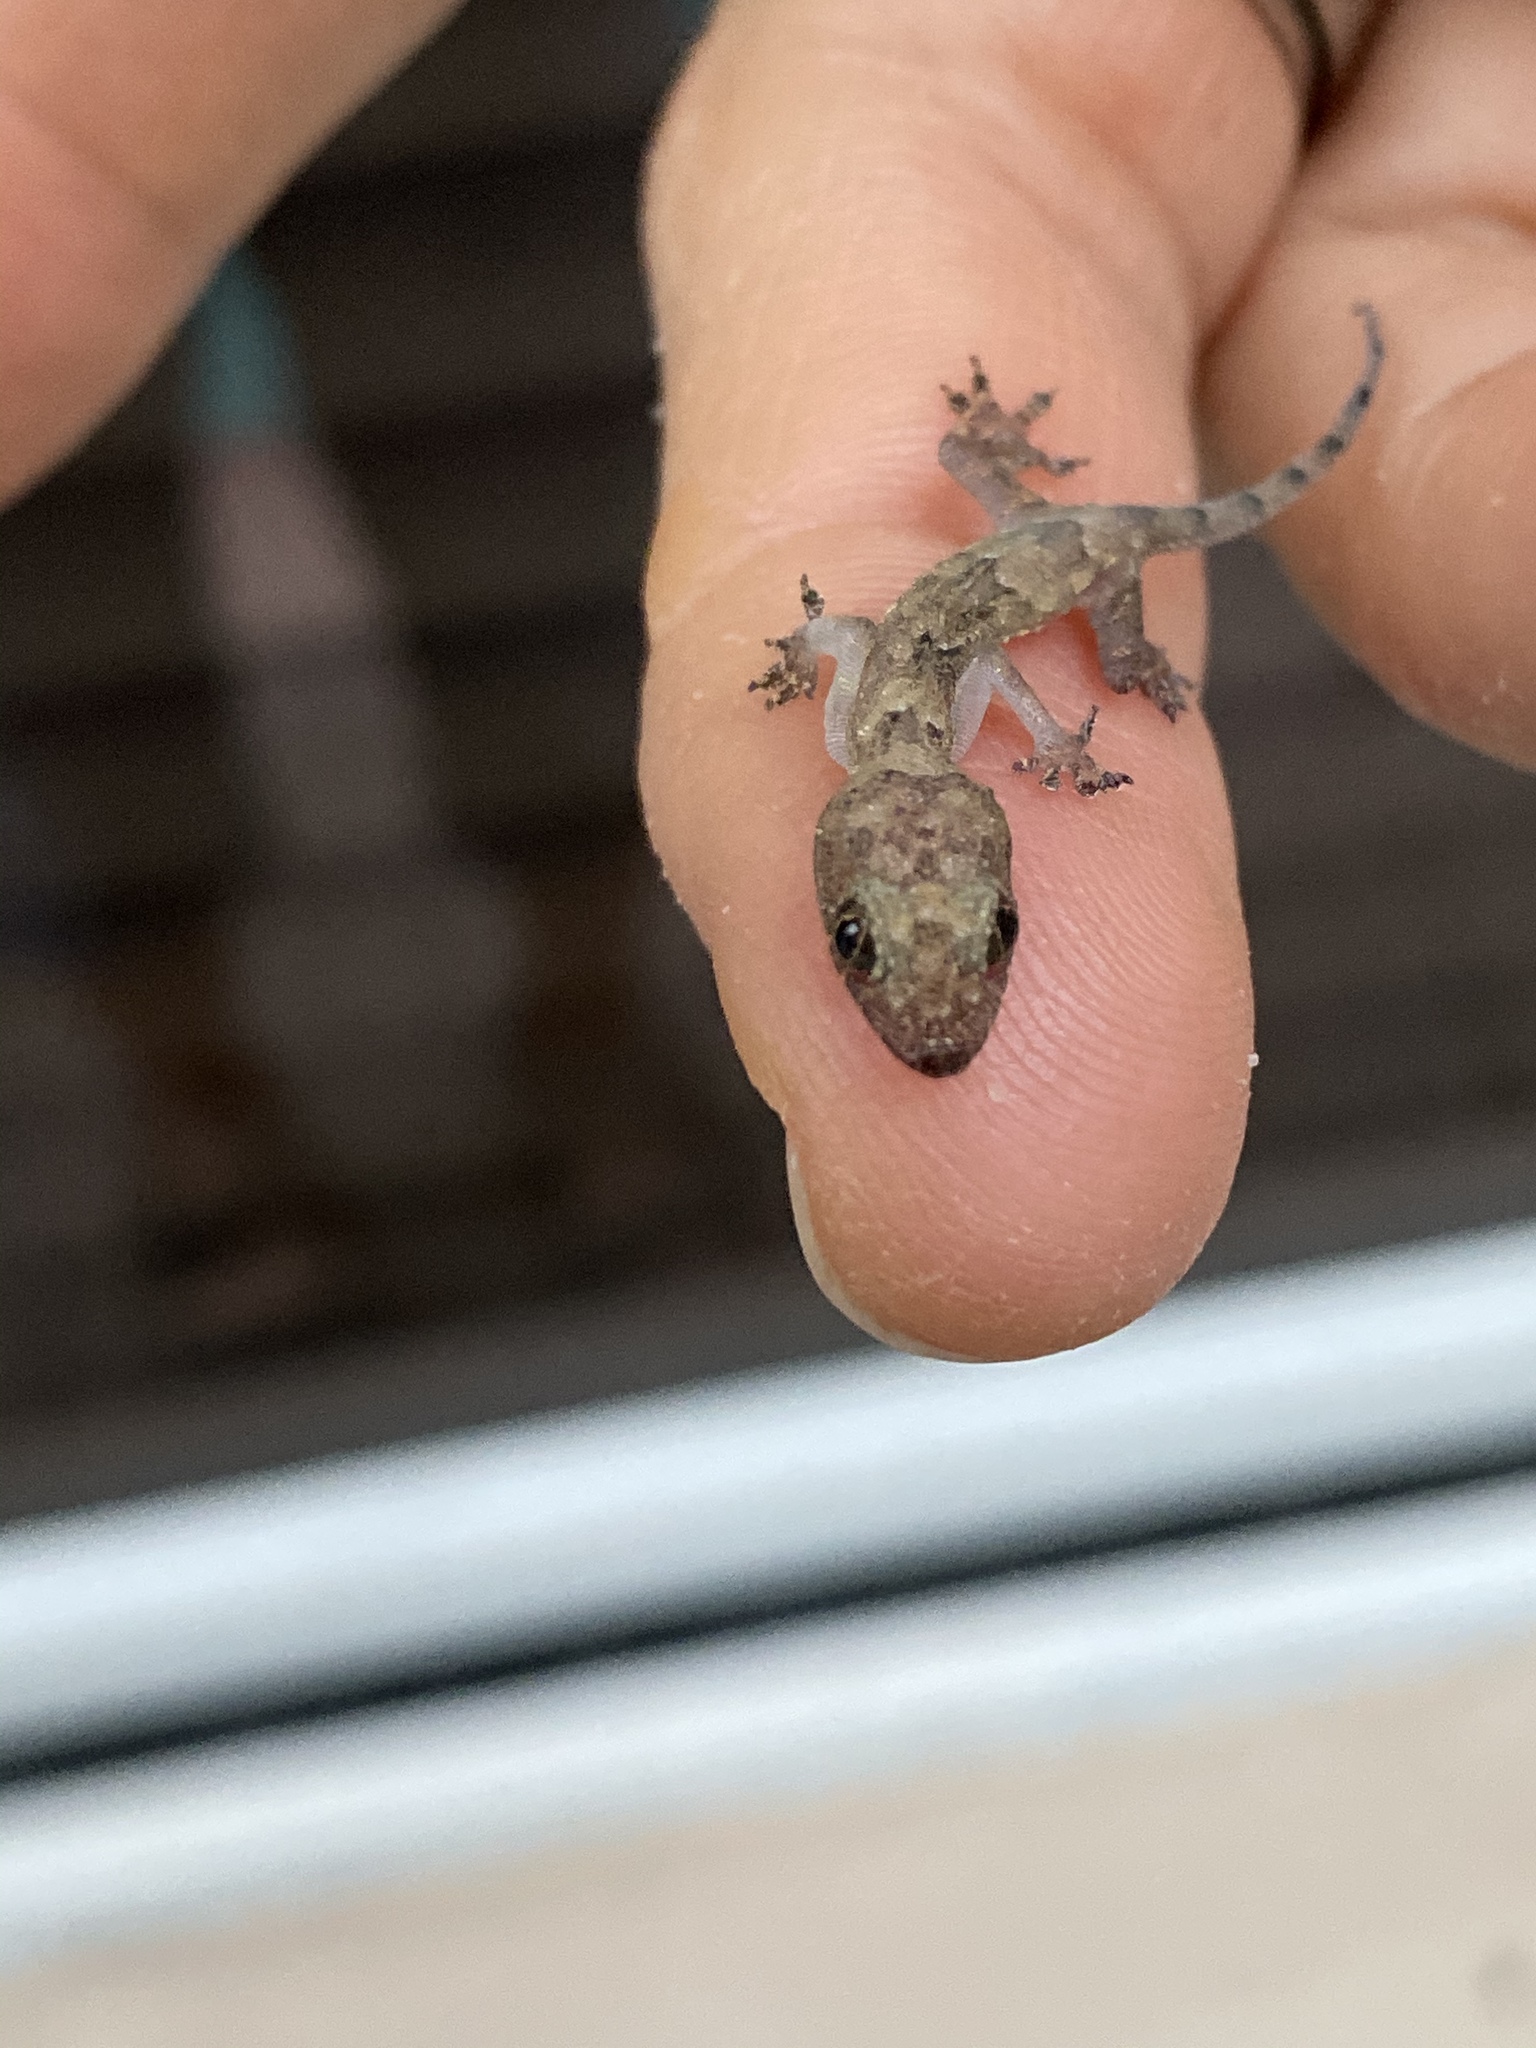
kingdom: Animalia
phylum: Chordata
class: Squamata
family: Gekkonidae
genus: Hemidactylus
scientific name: Hemidactylus mabouia
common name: House gecko
